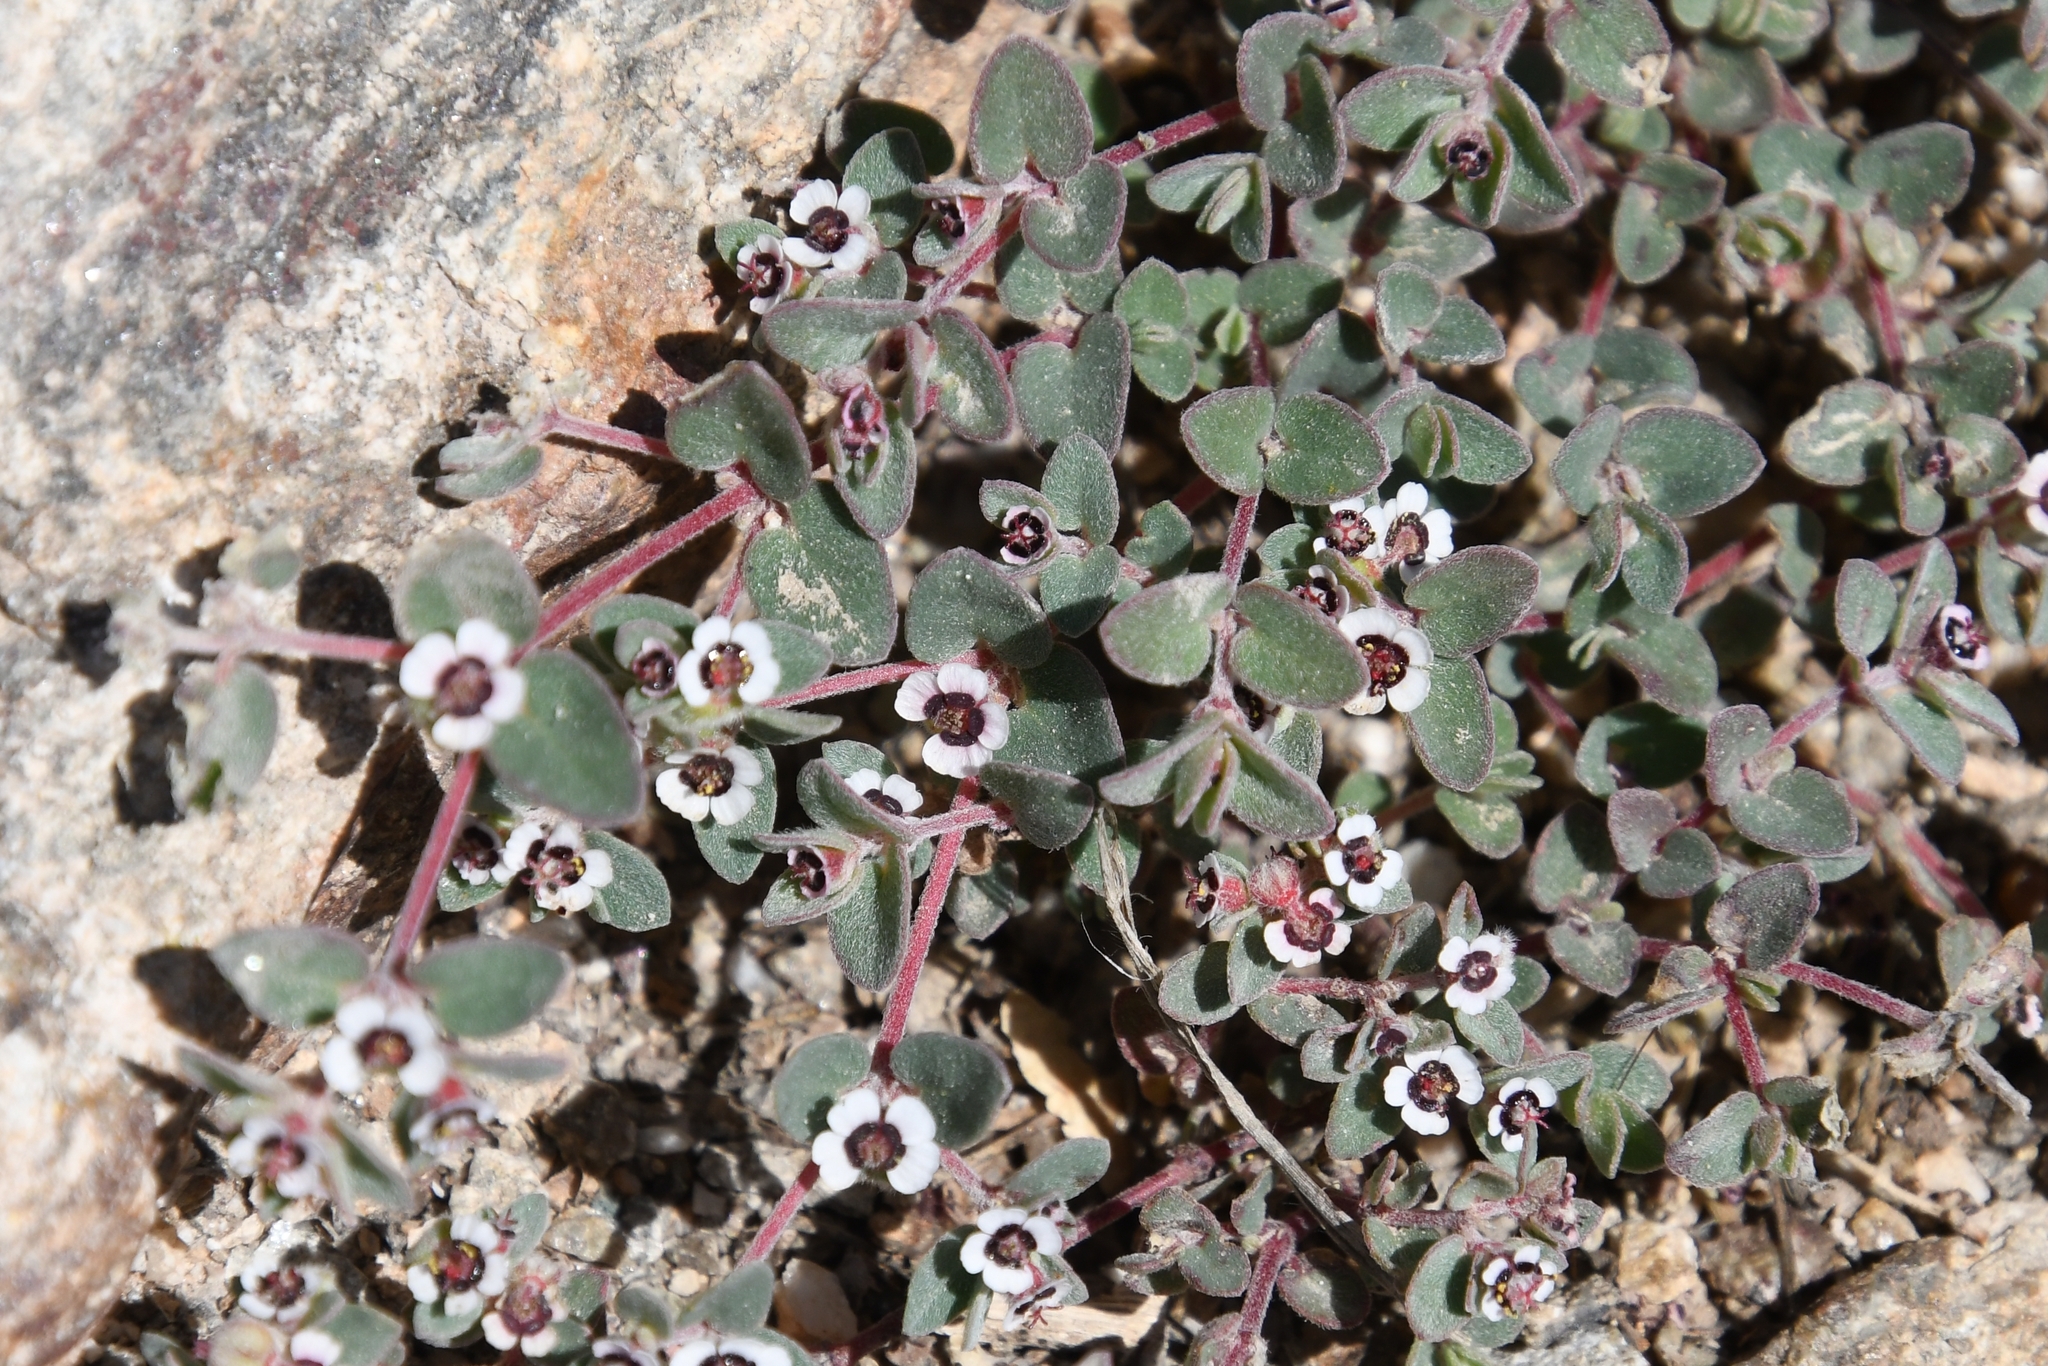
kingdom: Plantae
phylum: Tracheophyta
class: Magnoliopsida
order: Malpighiales
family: Euphorbiaceae
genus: Euphorbia
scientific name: Euphorbia melanadenia
